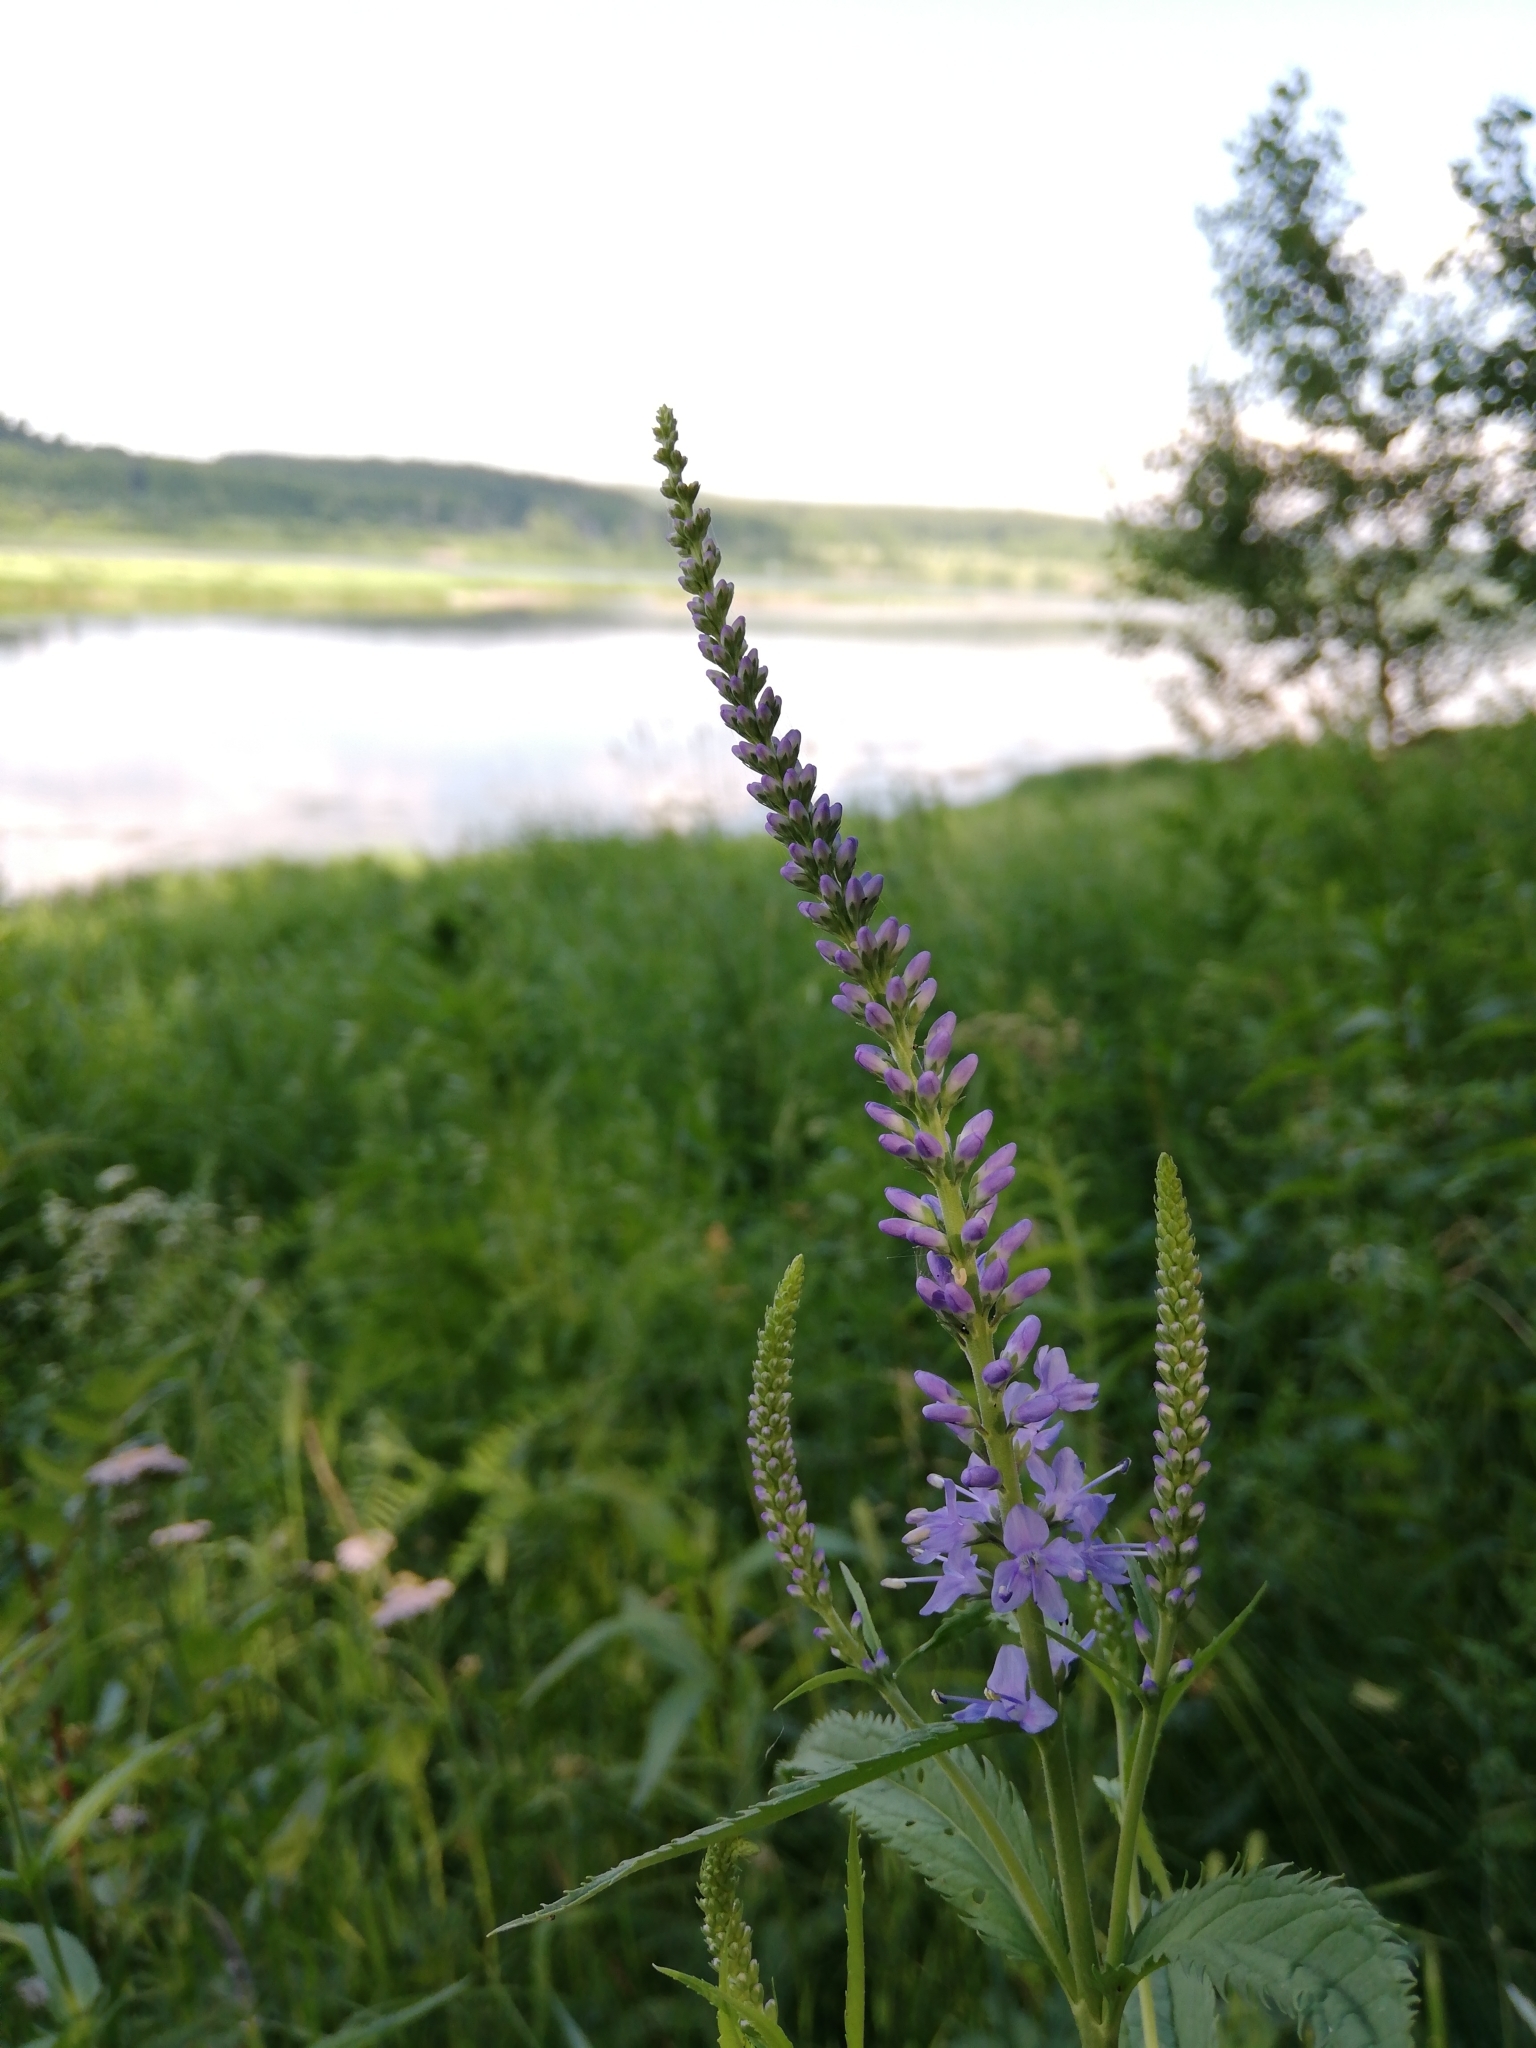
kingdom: Plantae
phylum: Tracheophyta
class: Magnoliopsida
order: Lamiales
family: Plantaginaceae
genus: Veronica
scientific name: Veronica longifolia
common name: Garden speedwell
